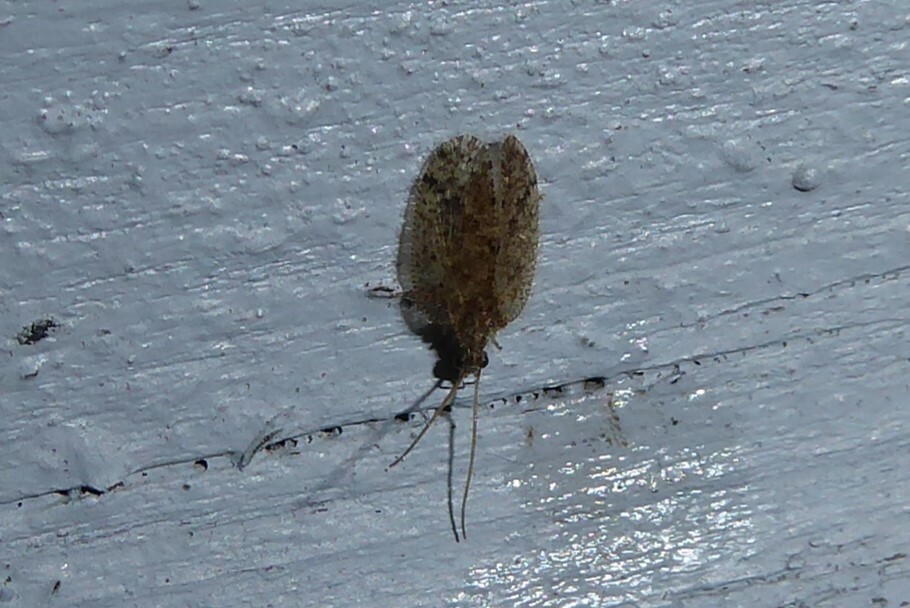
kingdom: Animalia
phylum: Arthropoda
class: Insecta
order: Neuroptera
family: Hemerobiidae
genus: Psectra
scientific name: Psectra nakaharai
